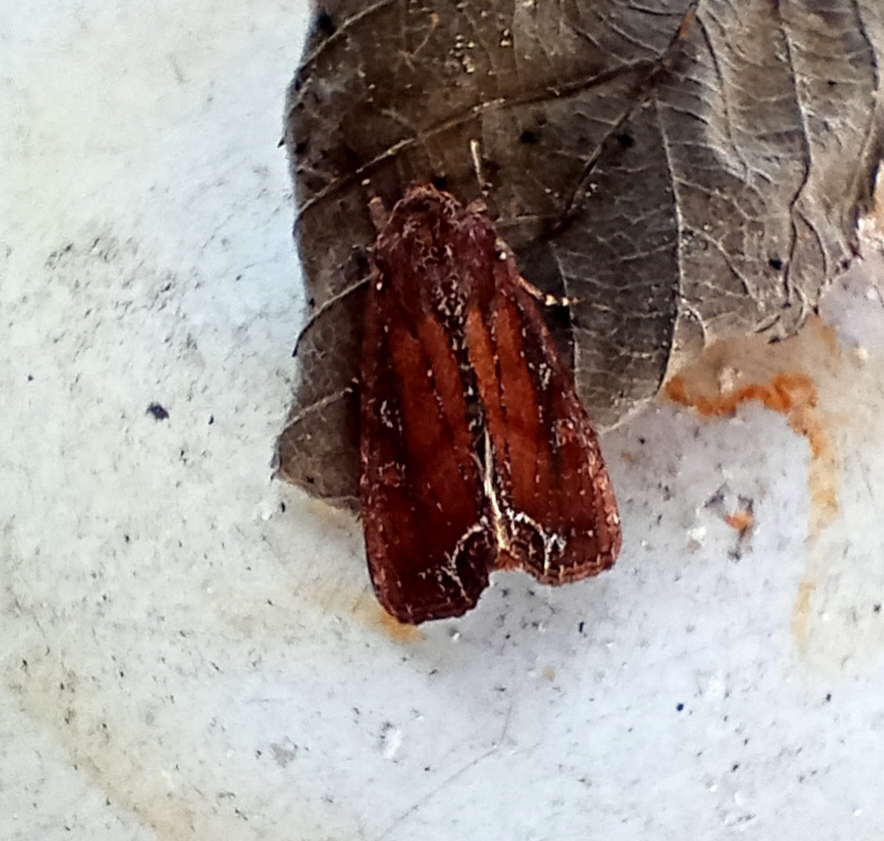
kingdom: Animalia
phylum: Arthropoda
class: Insecta
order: Lepidoptera
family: Noctuidae
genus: Lacanobia
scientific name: Lacanobia oleracea
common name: Bright-line brown-eye
